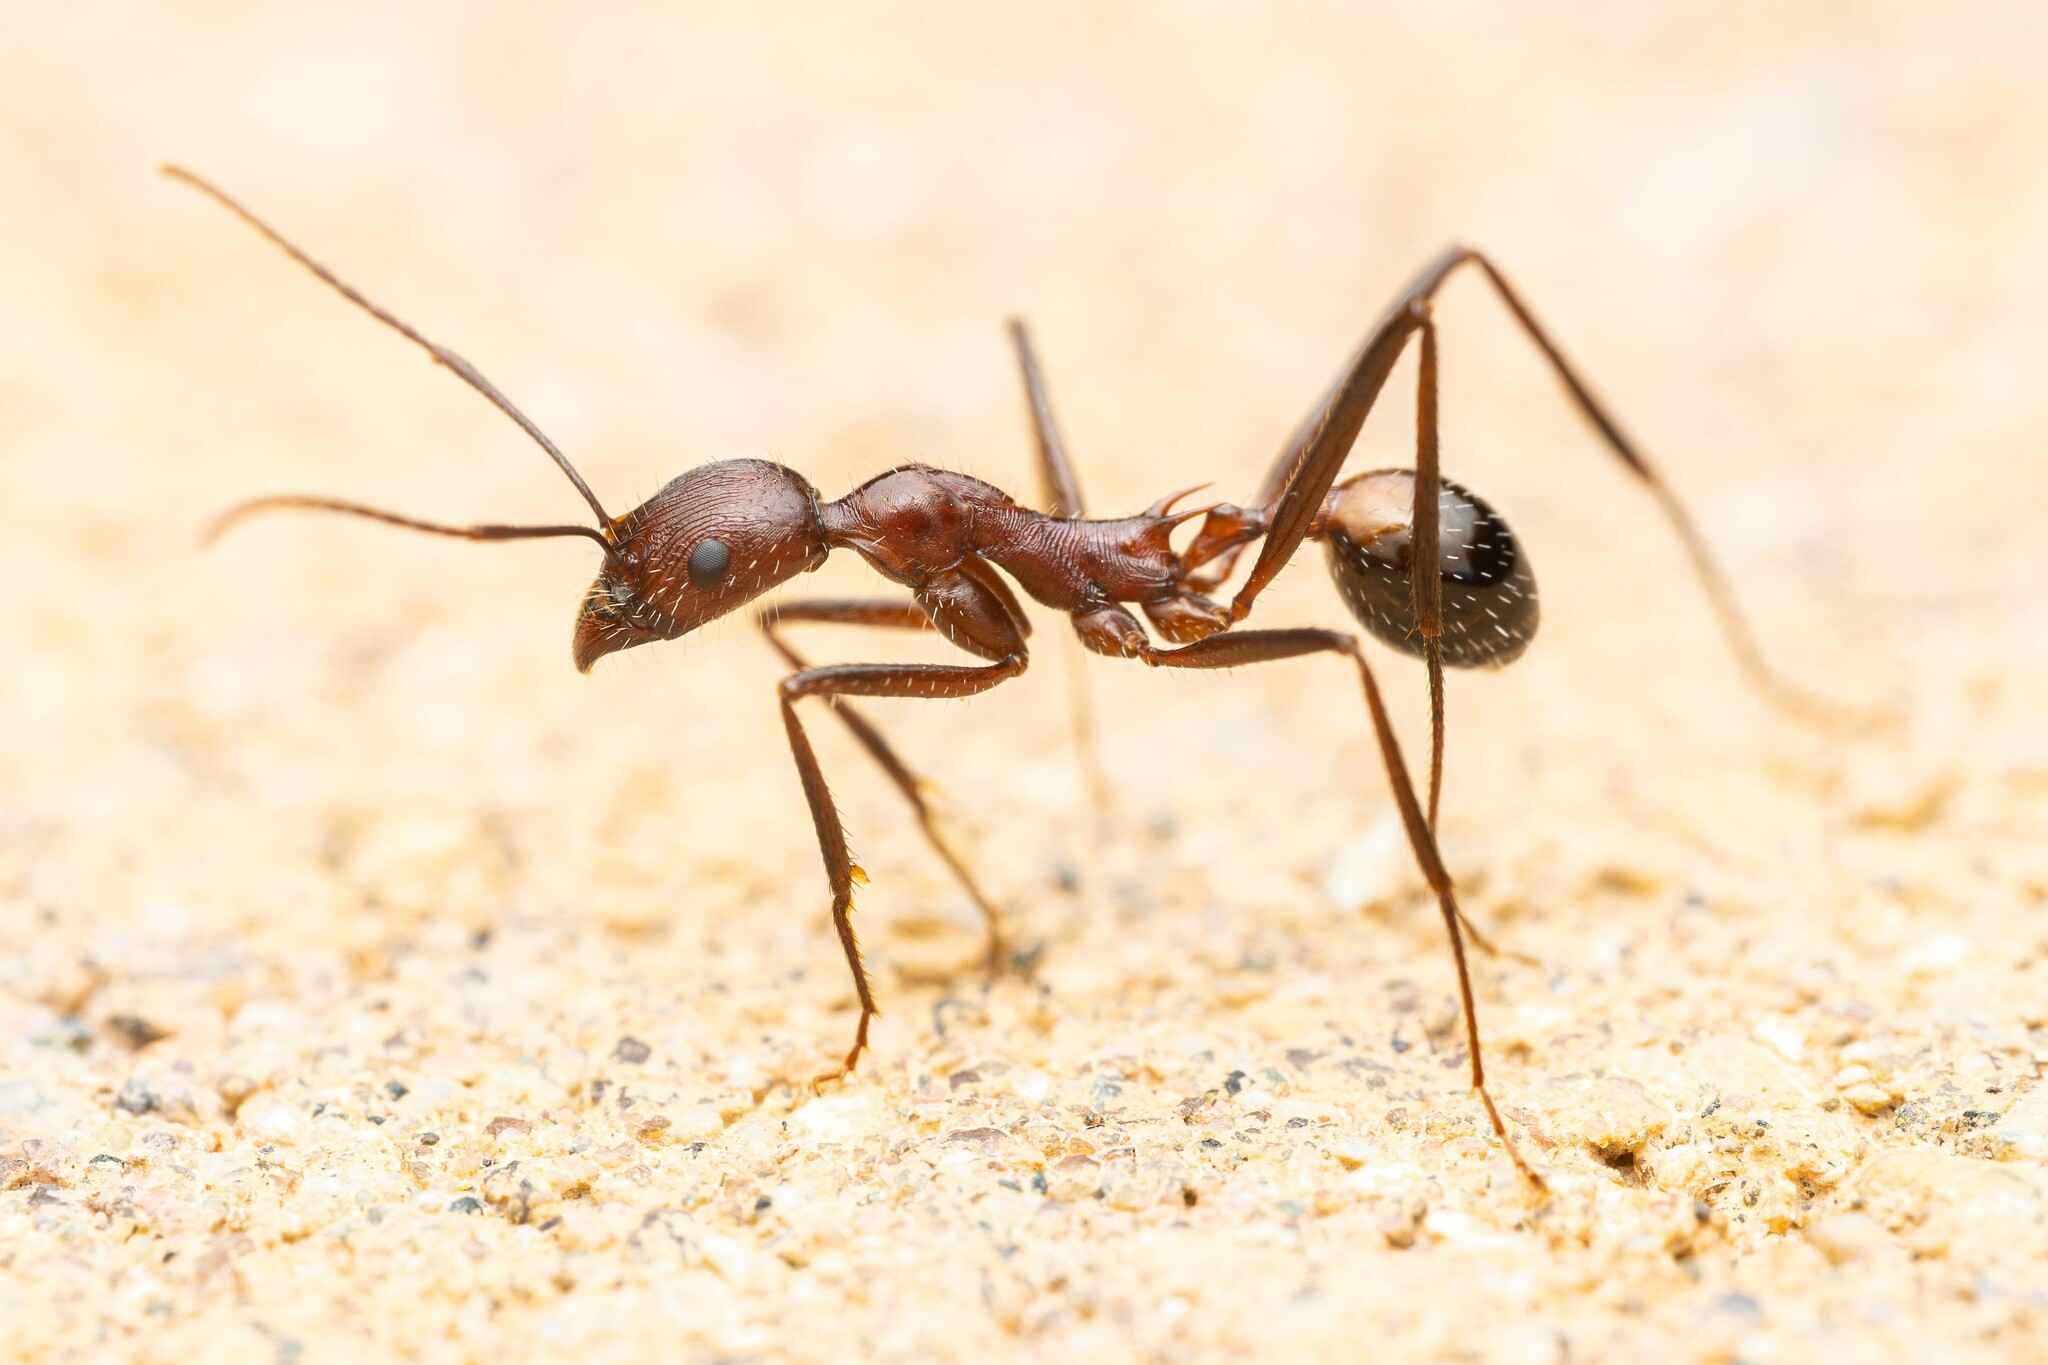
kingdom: Animalia
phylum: Arthropoda
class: Insecta
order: Hymenoptera
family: Formicidae
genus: Novomessor
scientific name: Novomessor cockerelli
